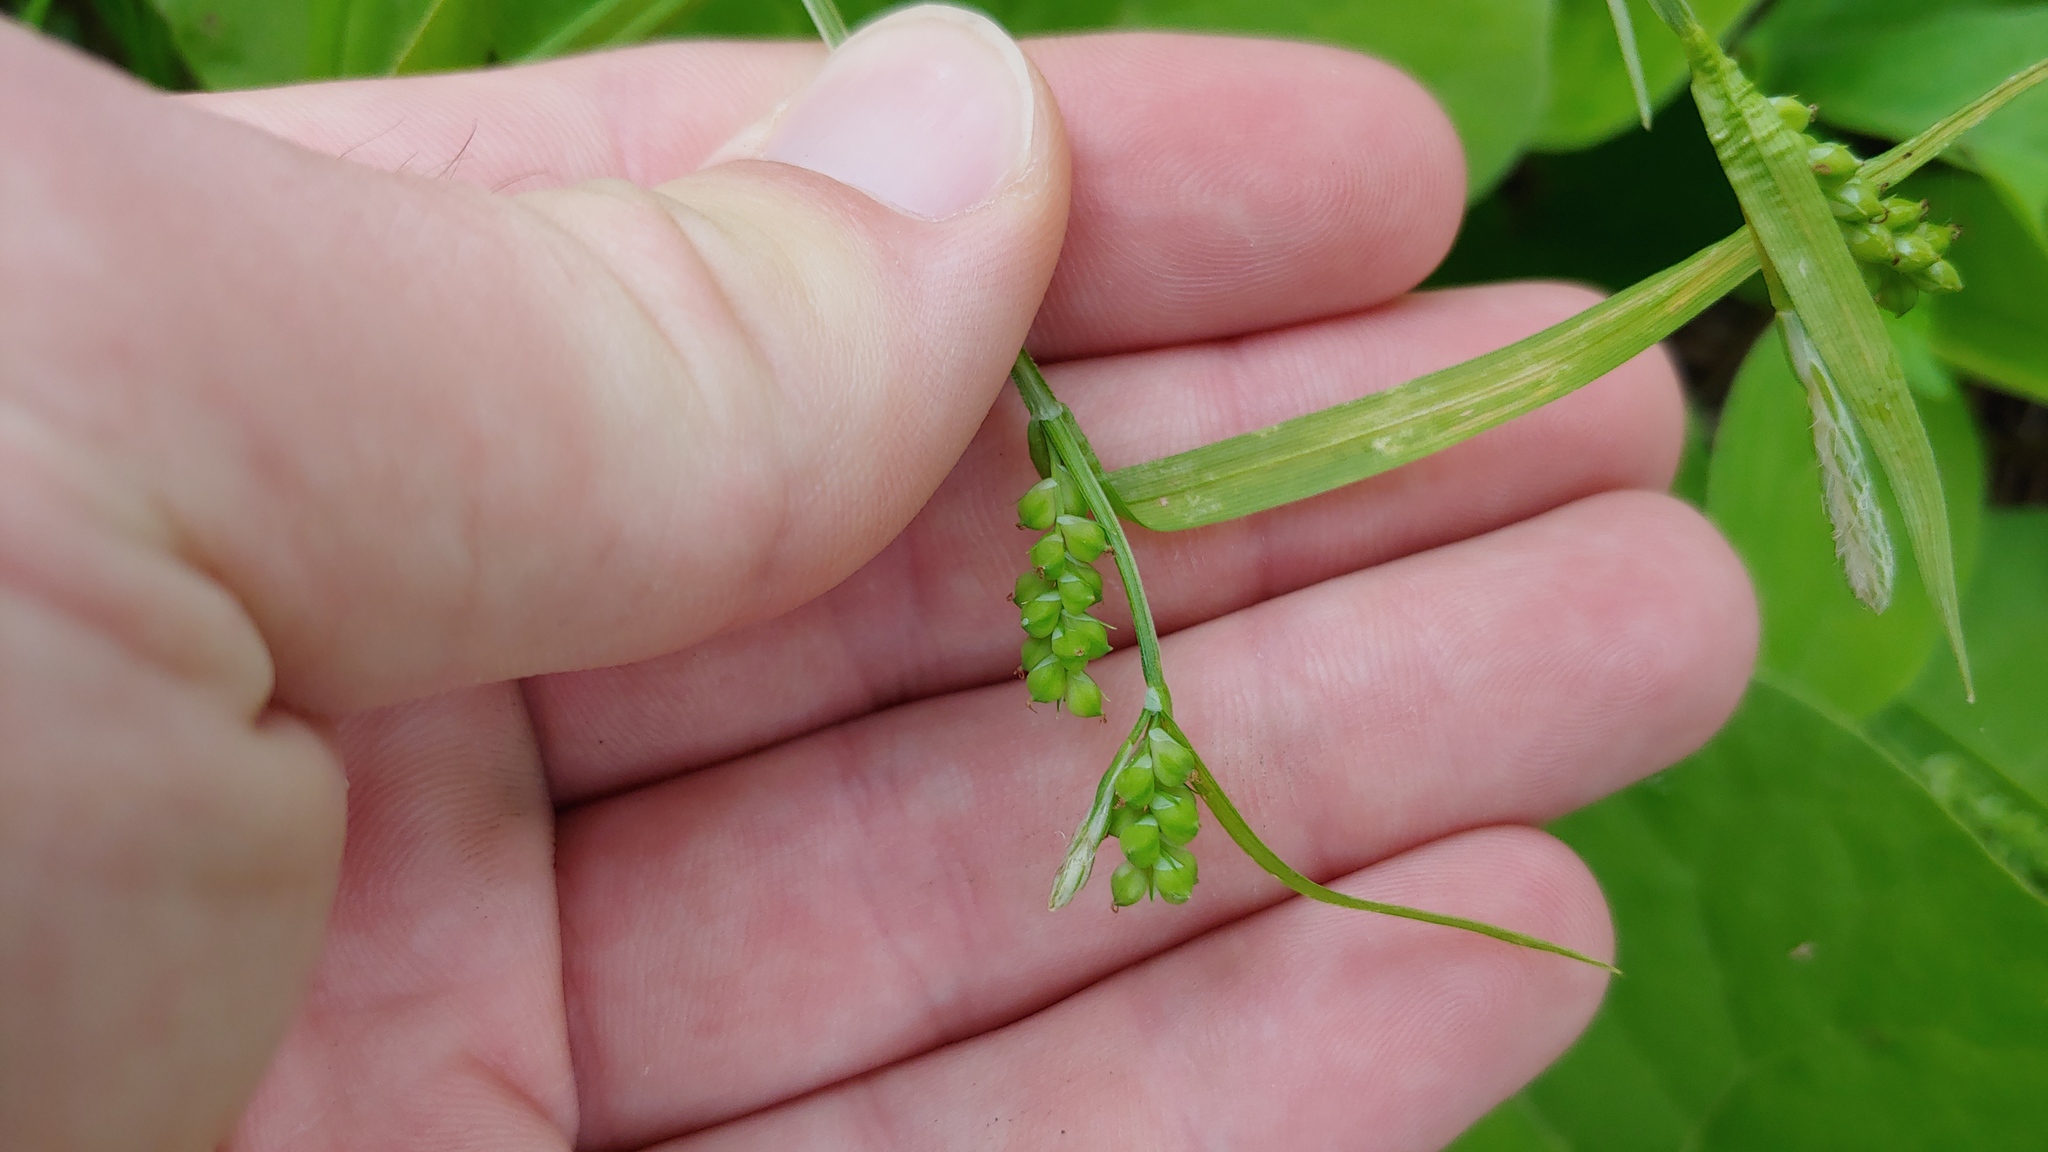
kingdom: Plantae
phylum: Tracheophyta
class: Liliopsida
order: Poales
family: Cyperaceae
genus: Carex
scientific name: Carex blanda
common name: Bland sedge
